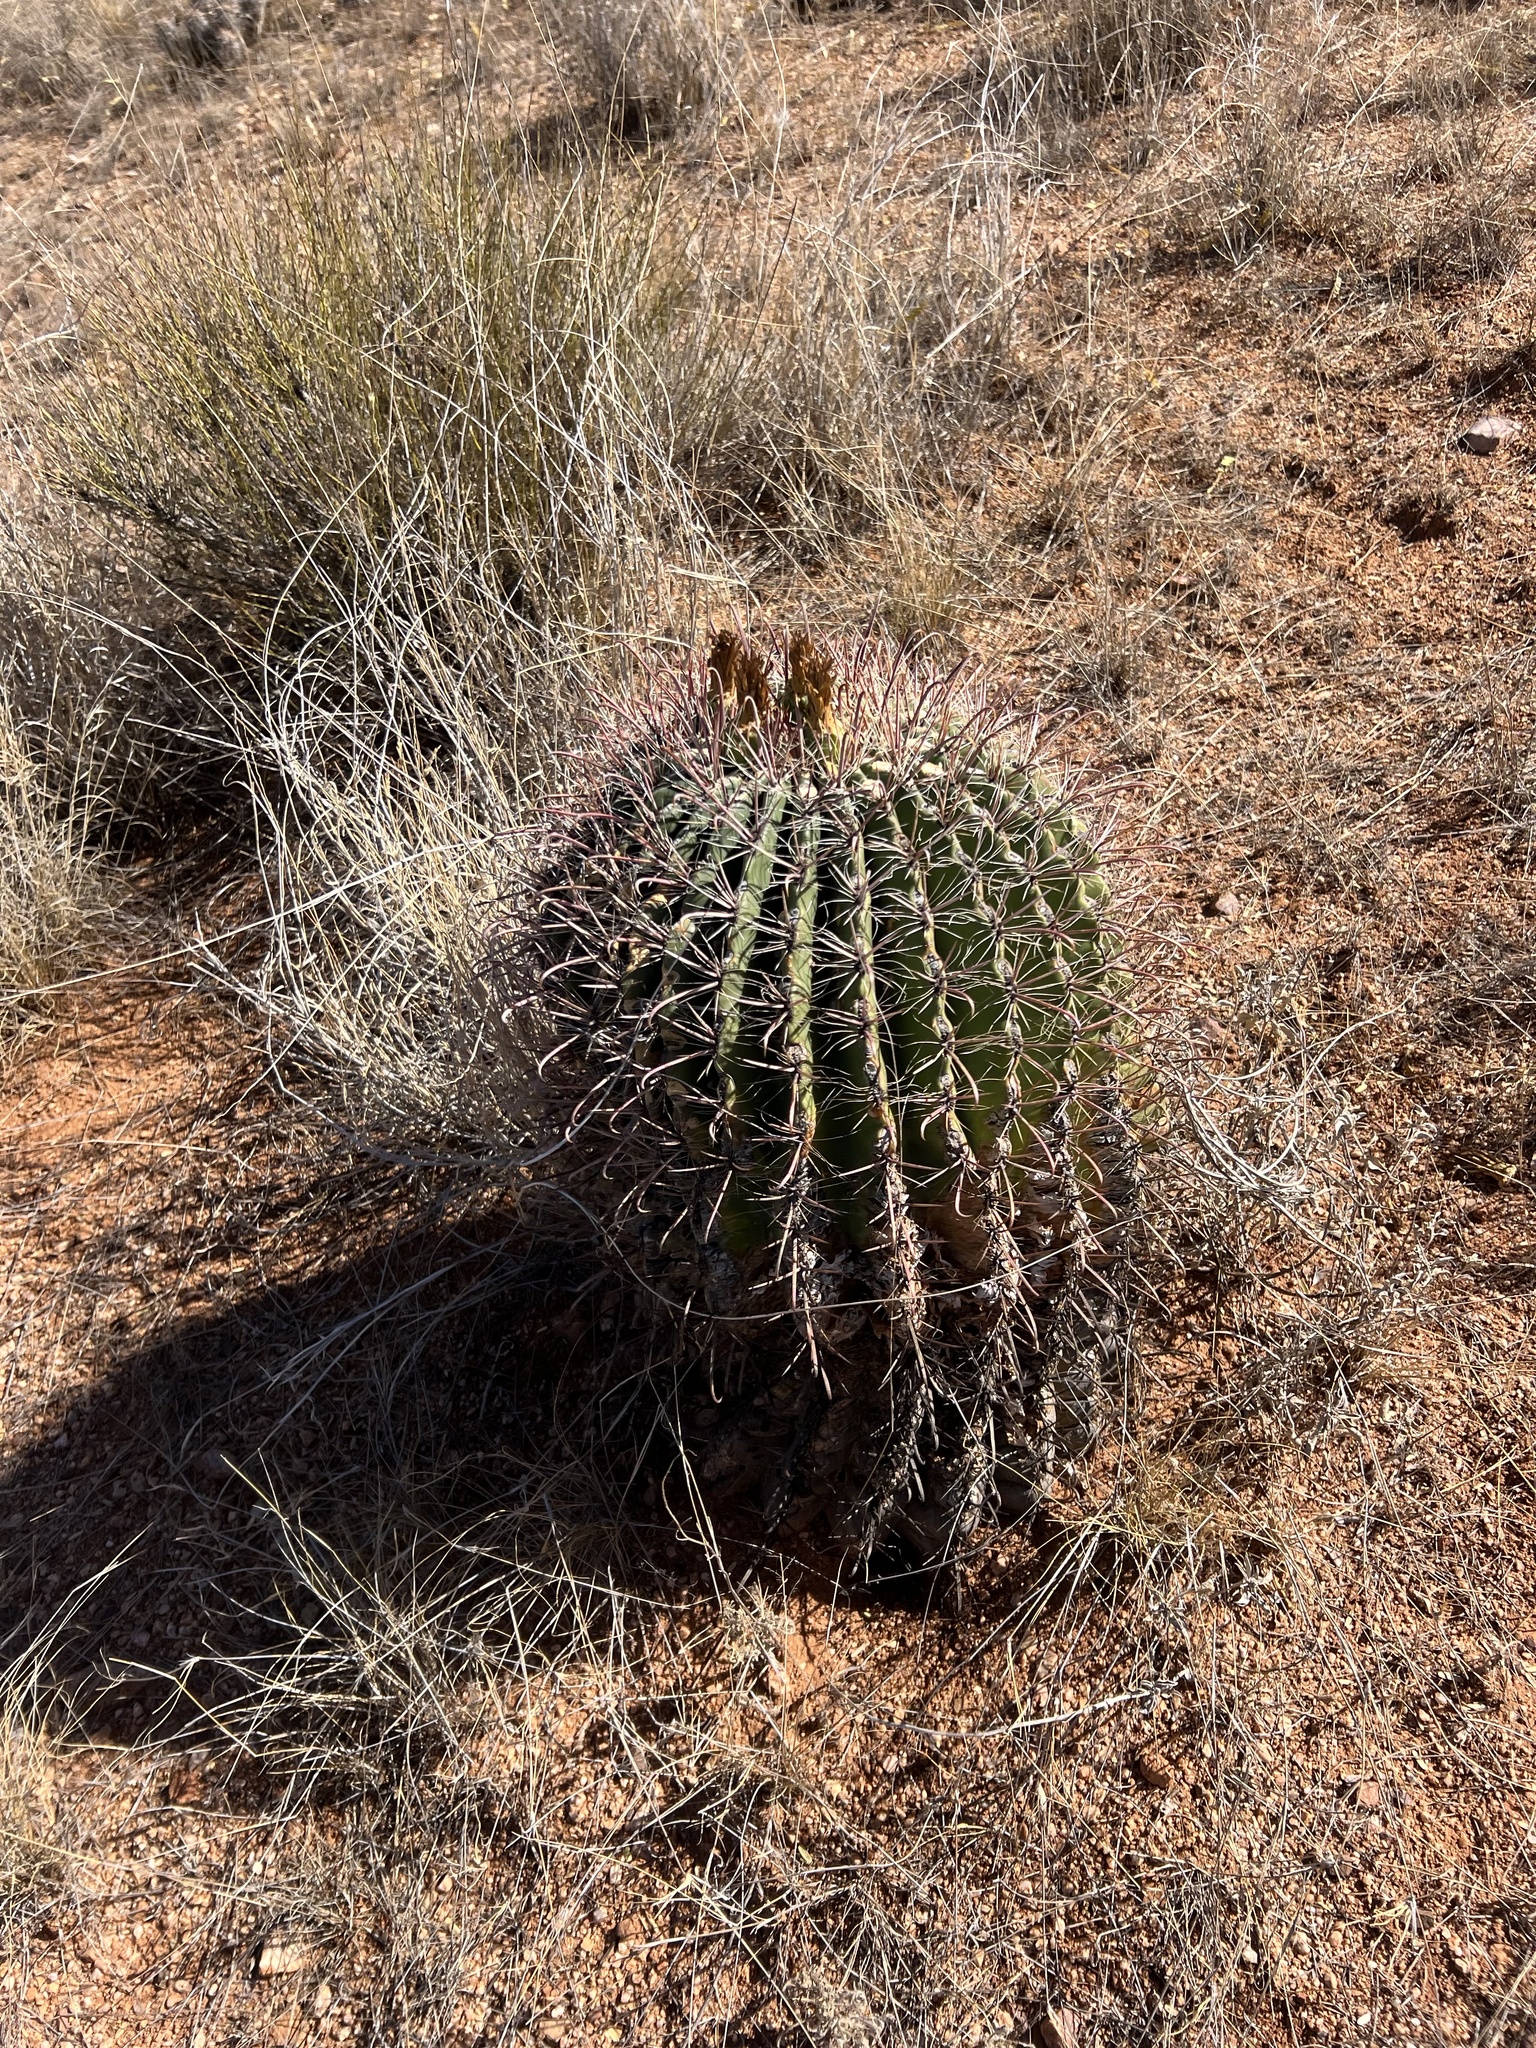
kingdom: Plantae
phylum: Tracheophyta
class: Magnoliopsida
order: Caryophyllales
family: Cactaceae
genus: Ferocactus
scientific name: Ferocactus wislizeni
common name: Candy barrel cactus
